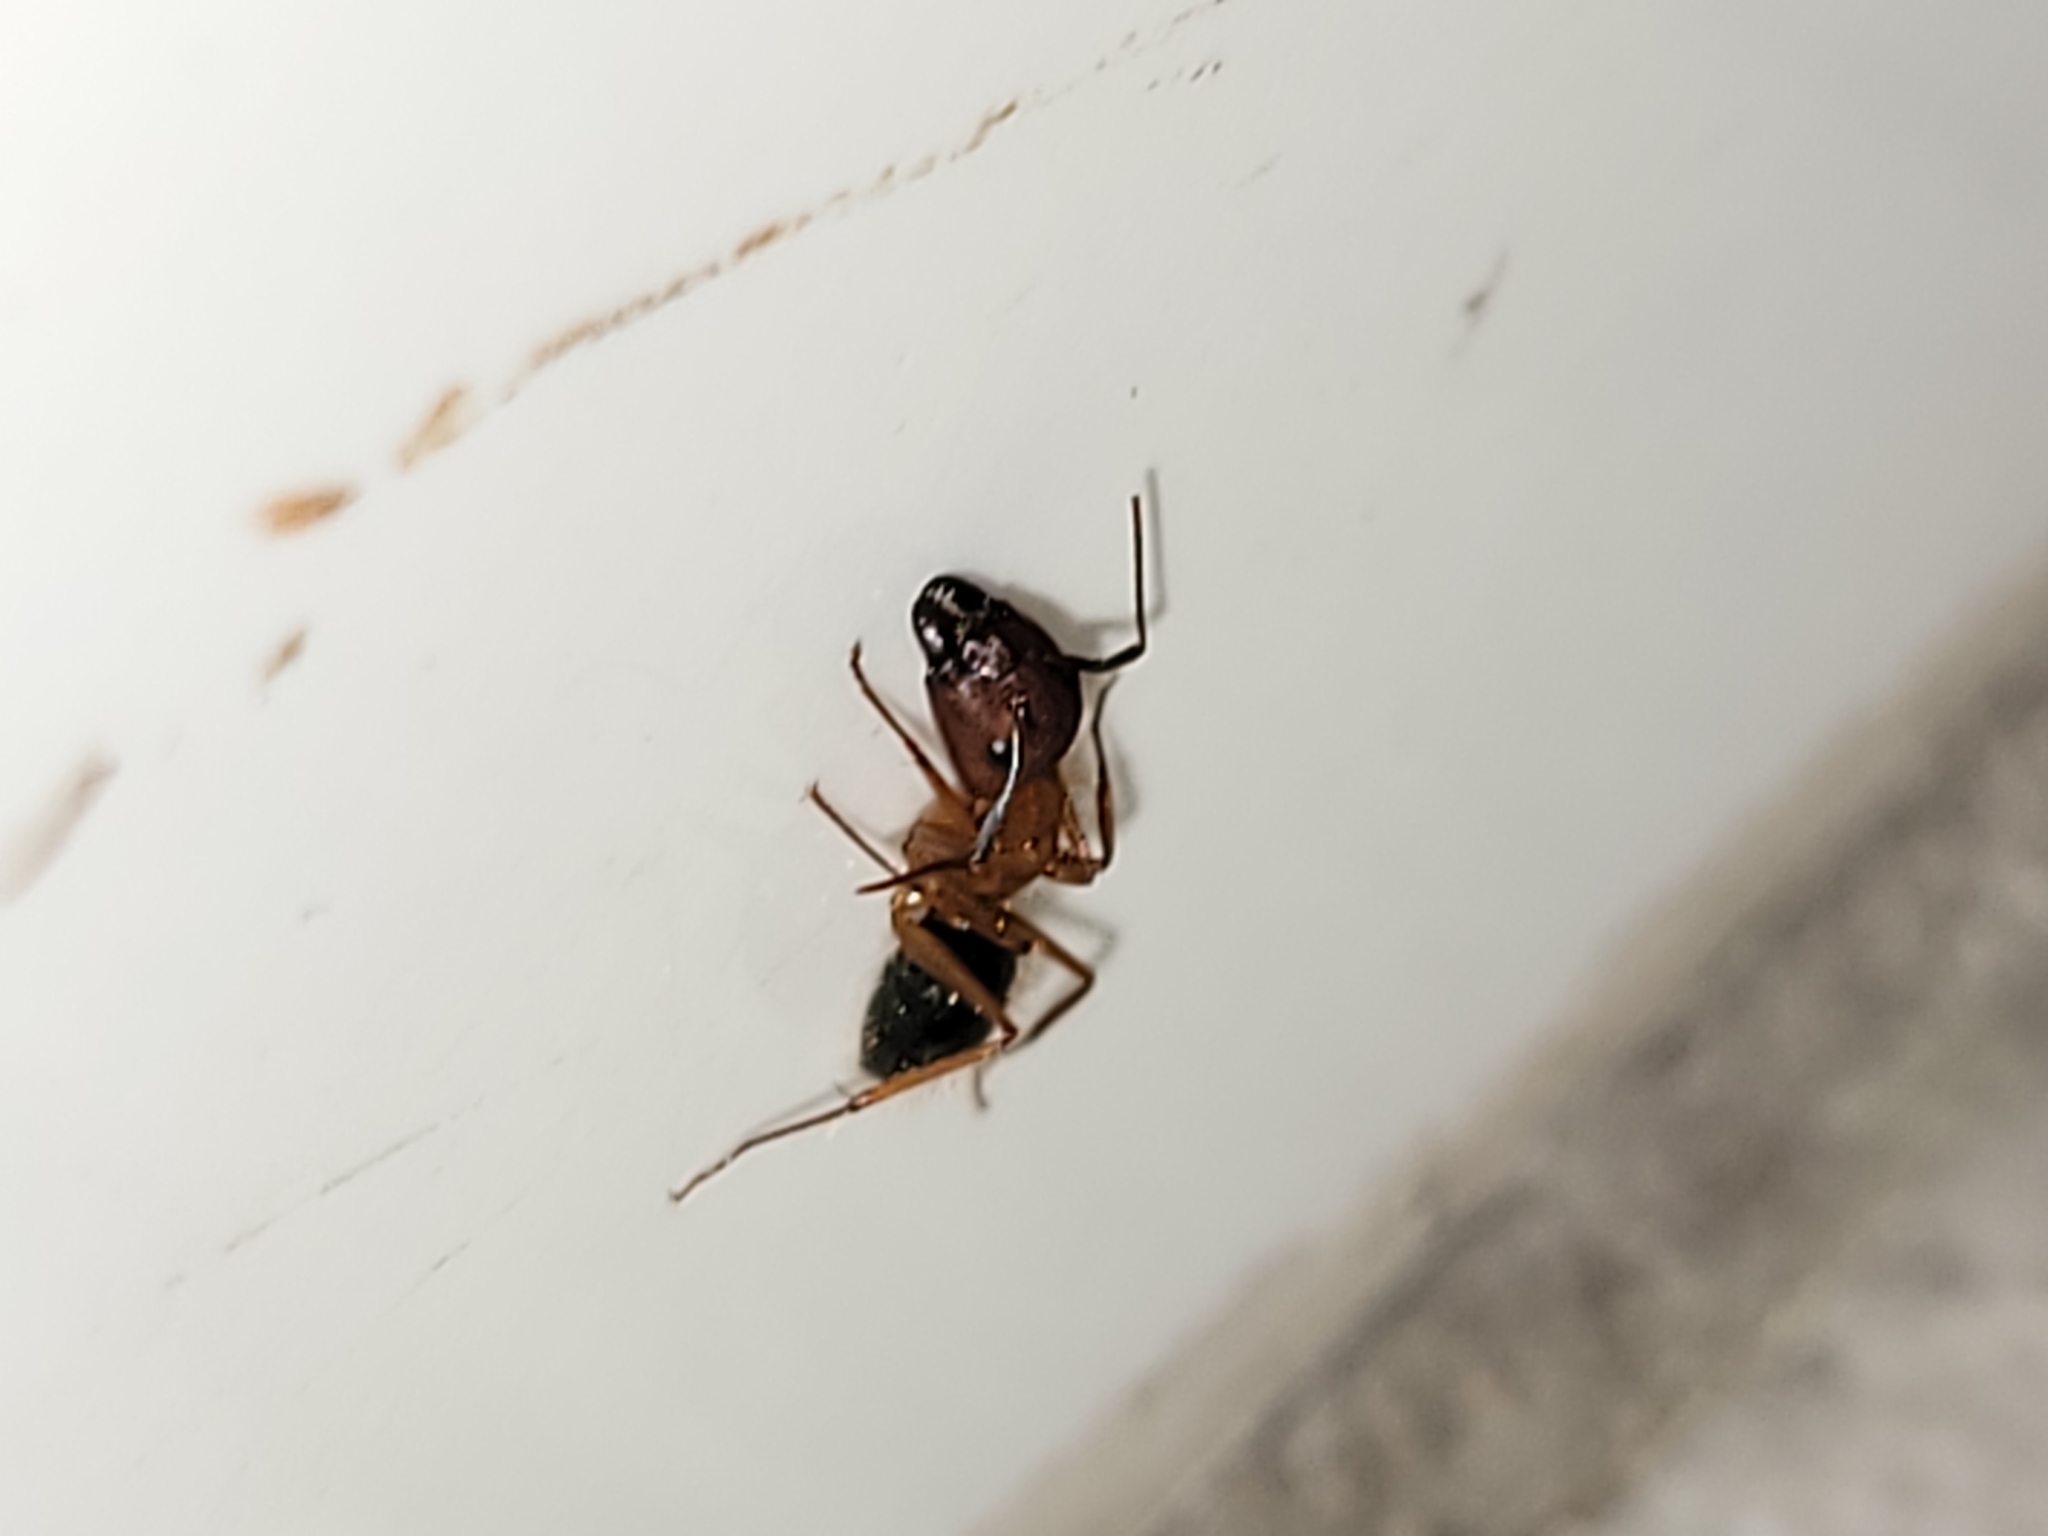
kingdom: Animalia
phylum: Arthropoda
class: Insecta
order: Hymenoptera
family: Formicidae
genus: Camponotus
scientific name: Camponotus floridanus
